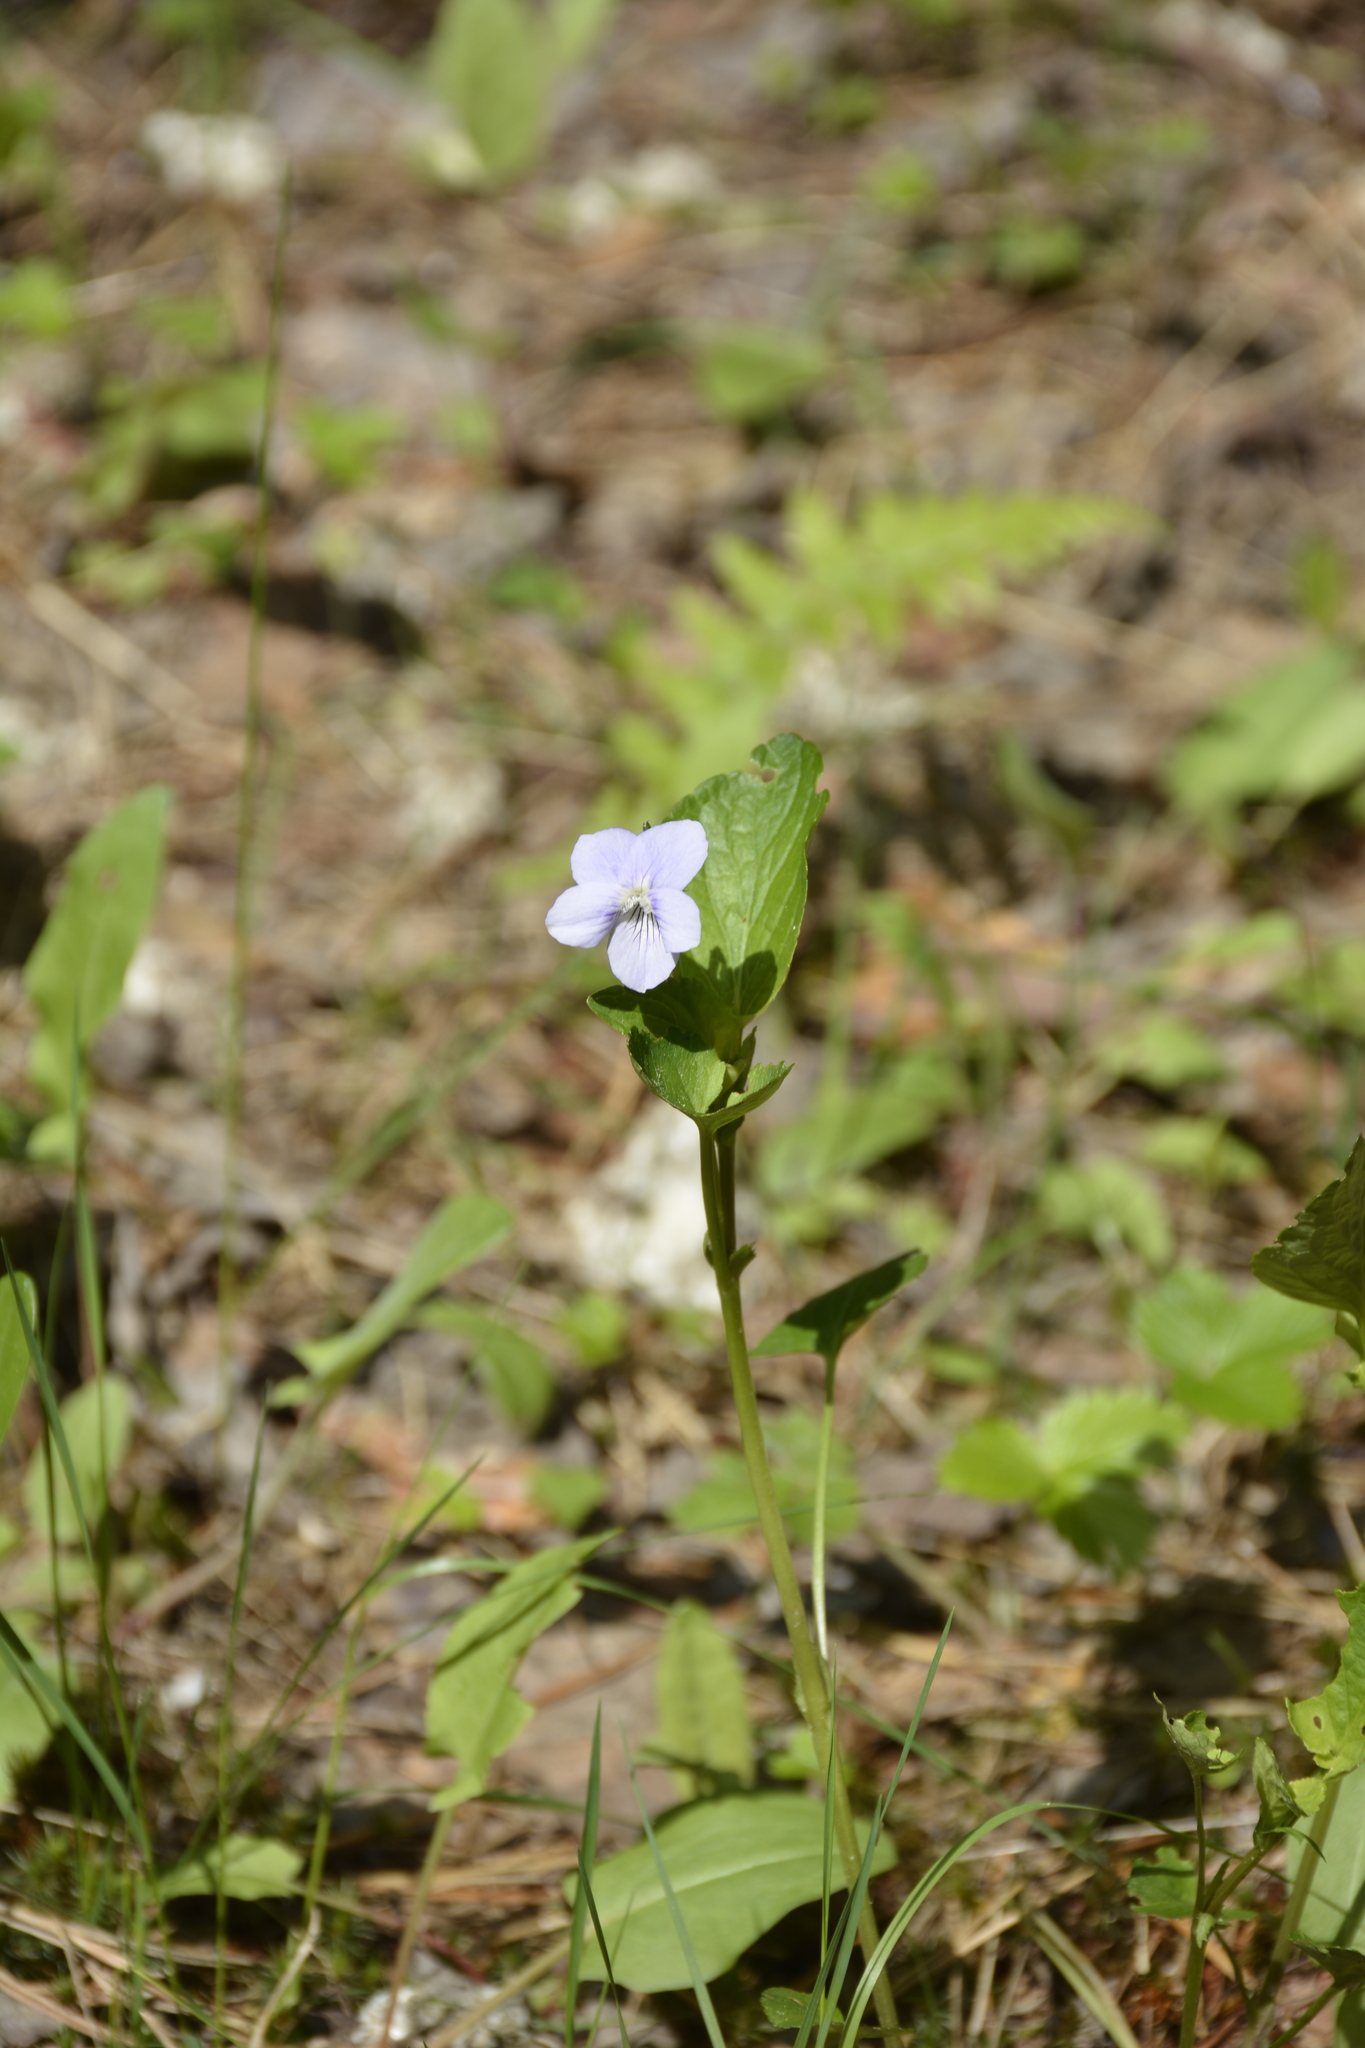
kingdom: Plantae
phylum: Tracheophyta
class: Magnoliopsida
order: Malpighiales
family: Violaceae
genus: Viola
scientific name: Viola
